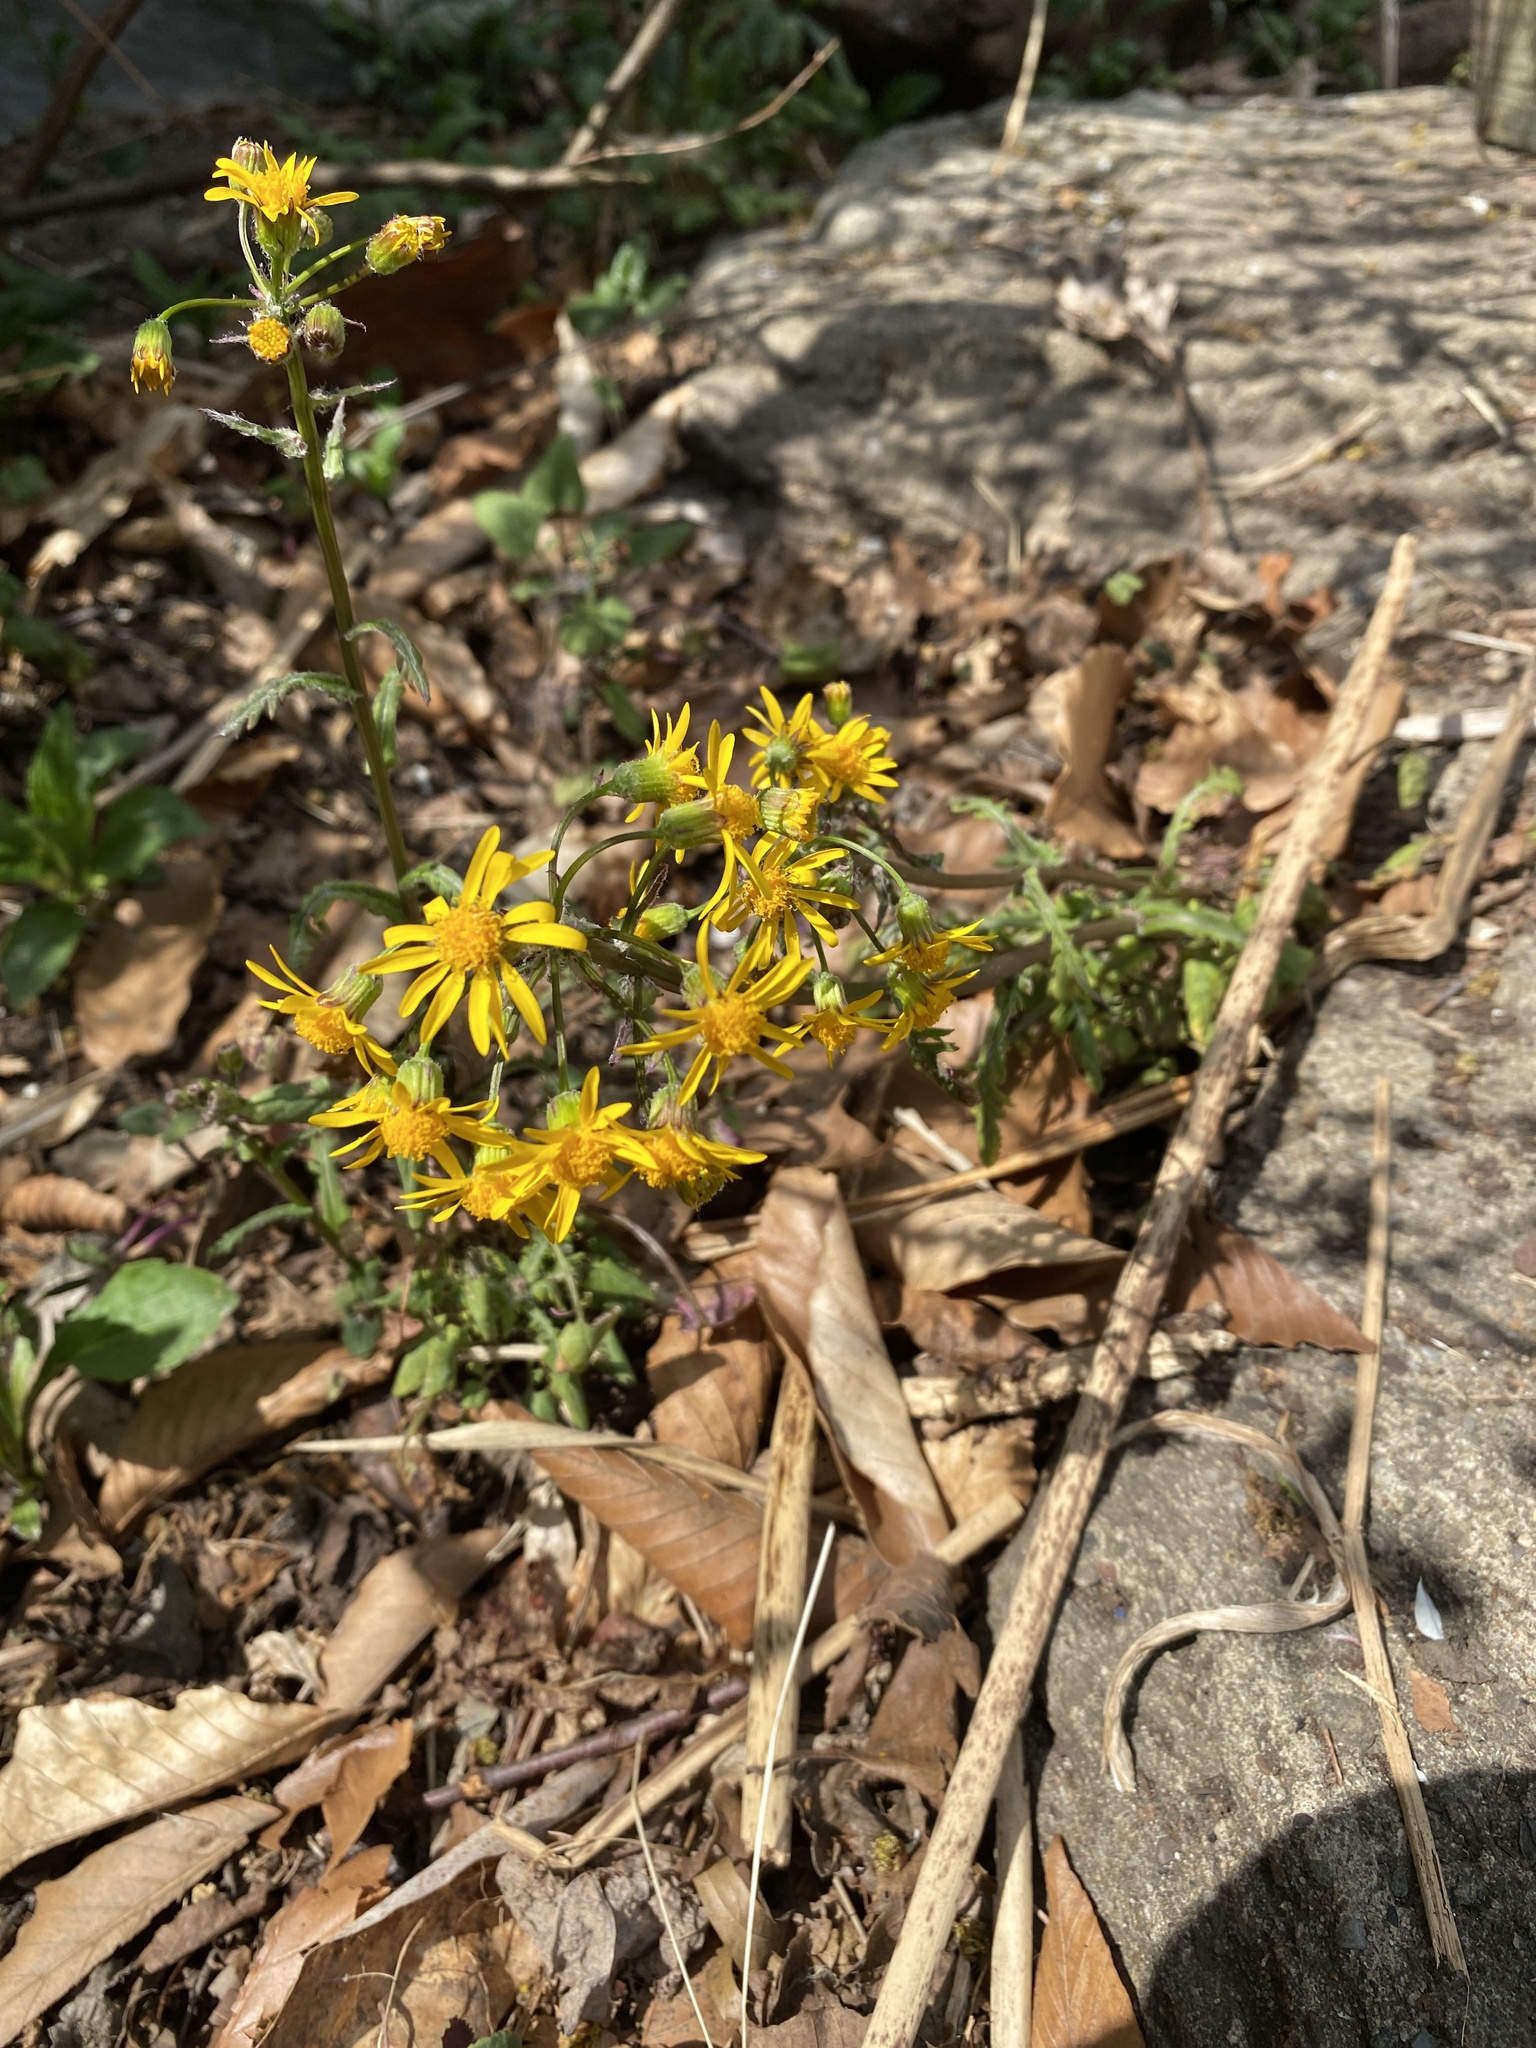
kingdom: Plantae
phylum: Tracheophyta
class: Magnoliopsida
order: Asterales
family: Asteraceae
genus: Packera
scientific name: Packera glabella
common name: Butterweed
